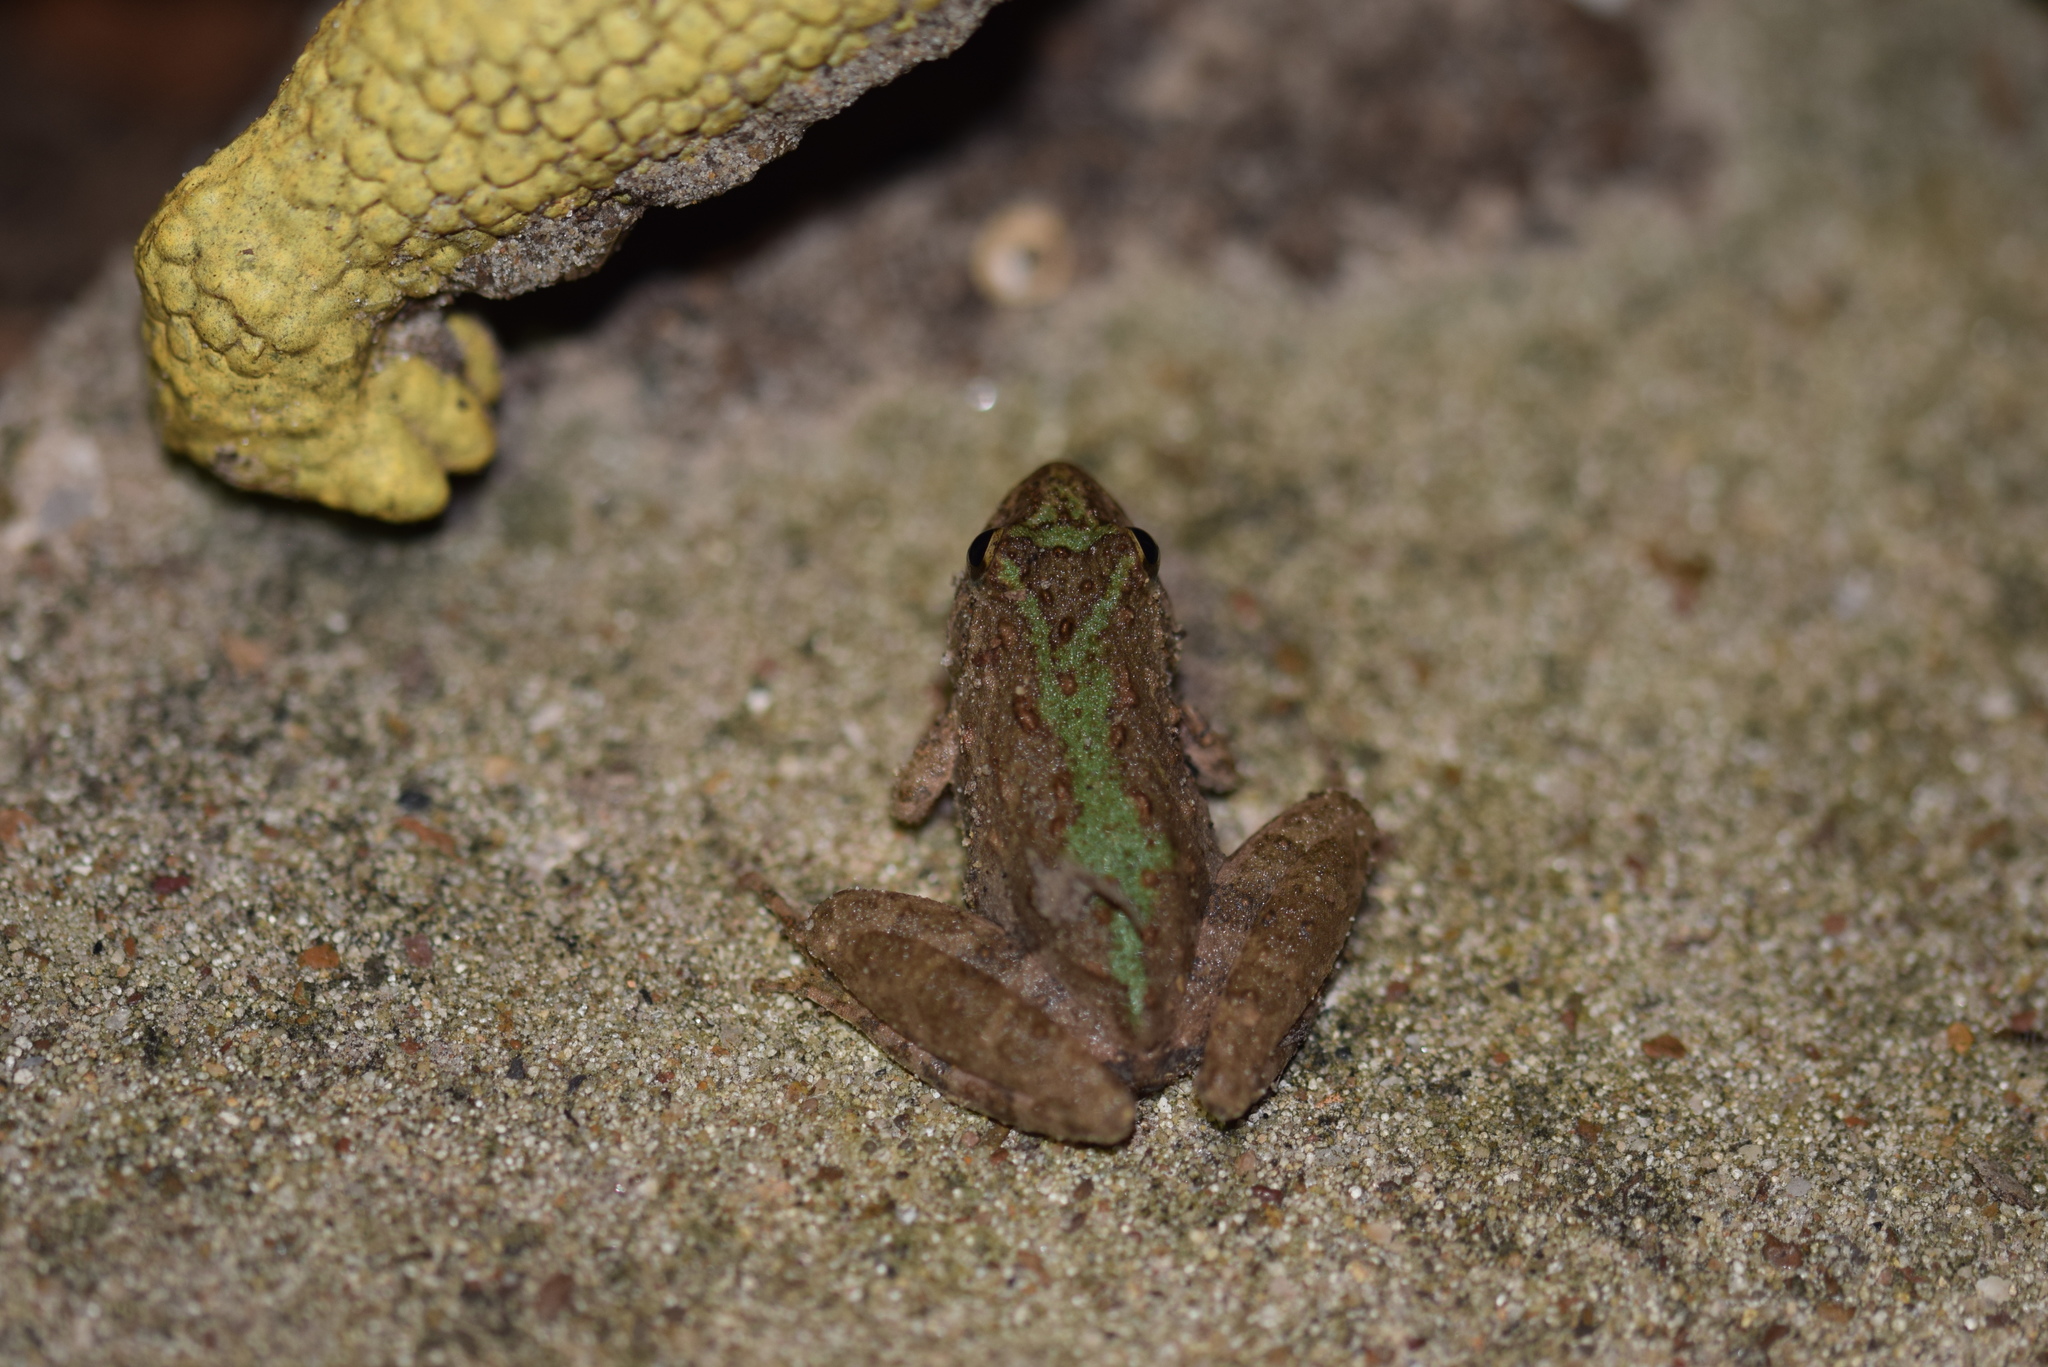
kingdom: Animalia
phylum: Chordata
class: Amphibia
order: Anura
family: Hylidae
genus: Acris
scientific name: Acris blanchardi
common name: Blanchard's cricket frog
